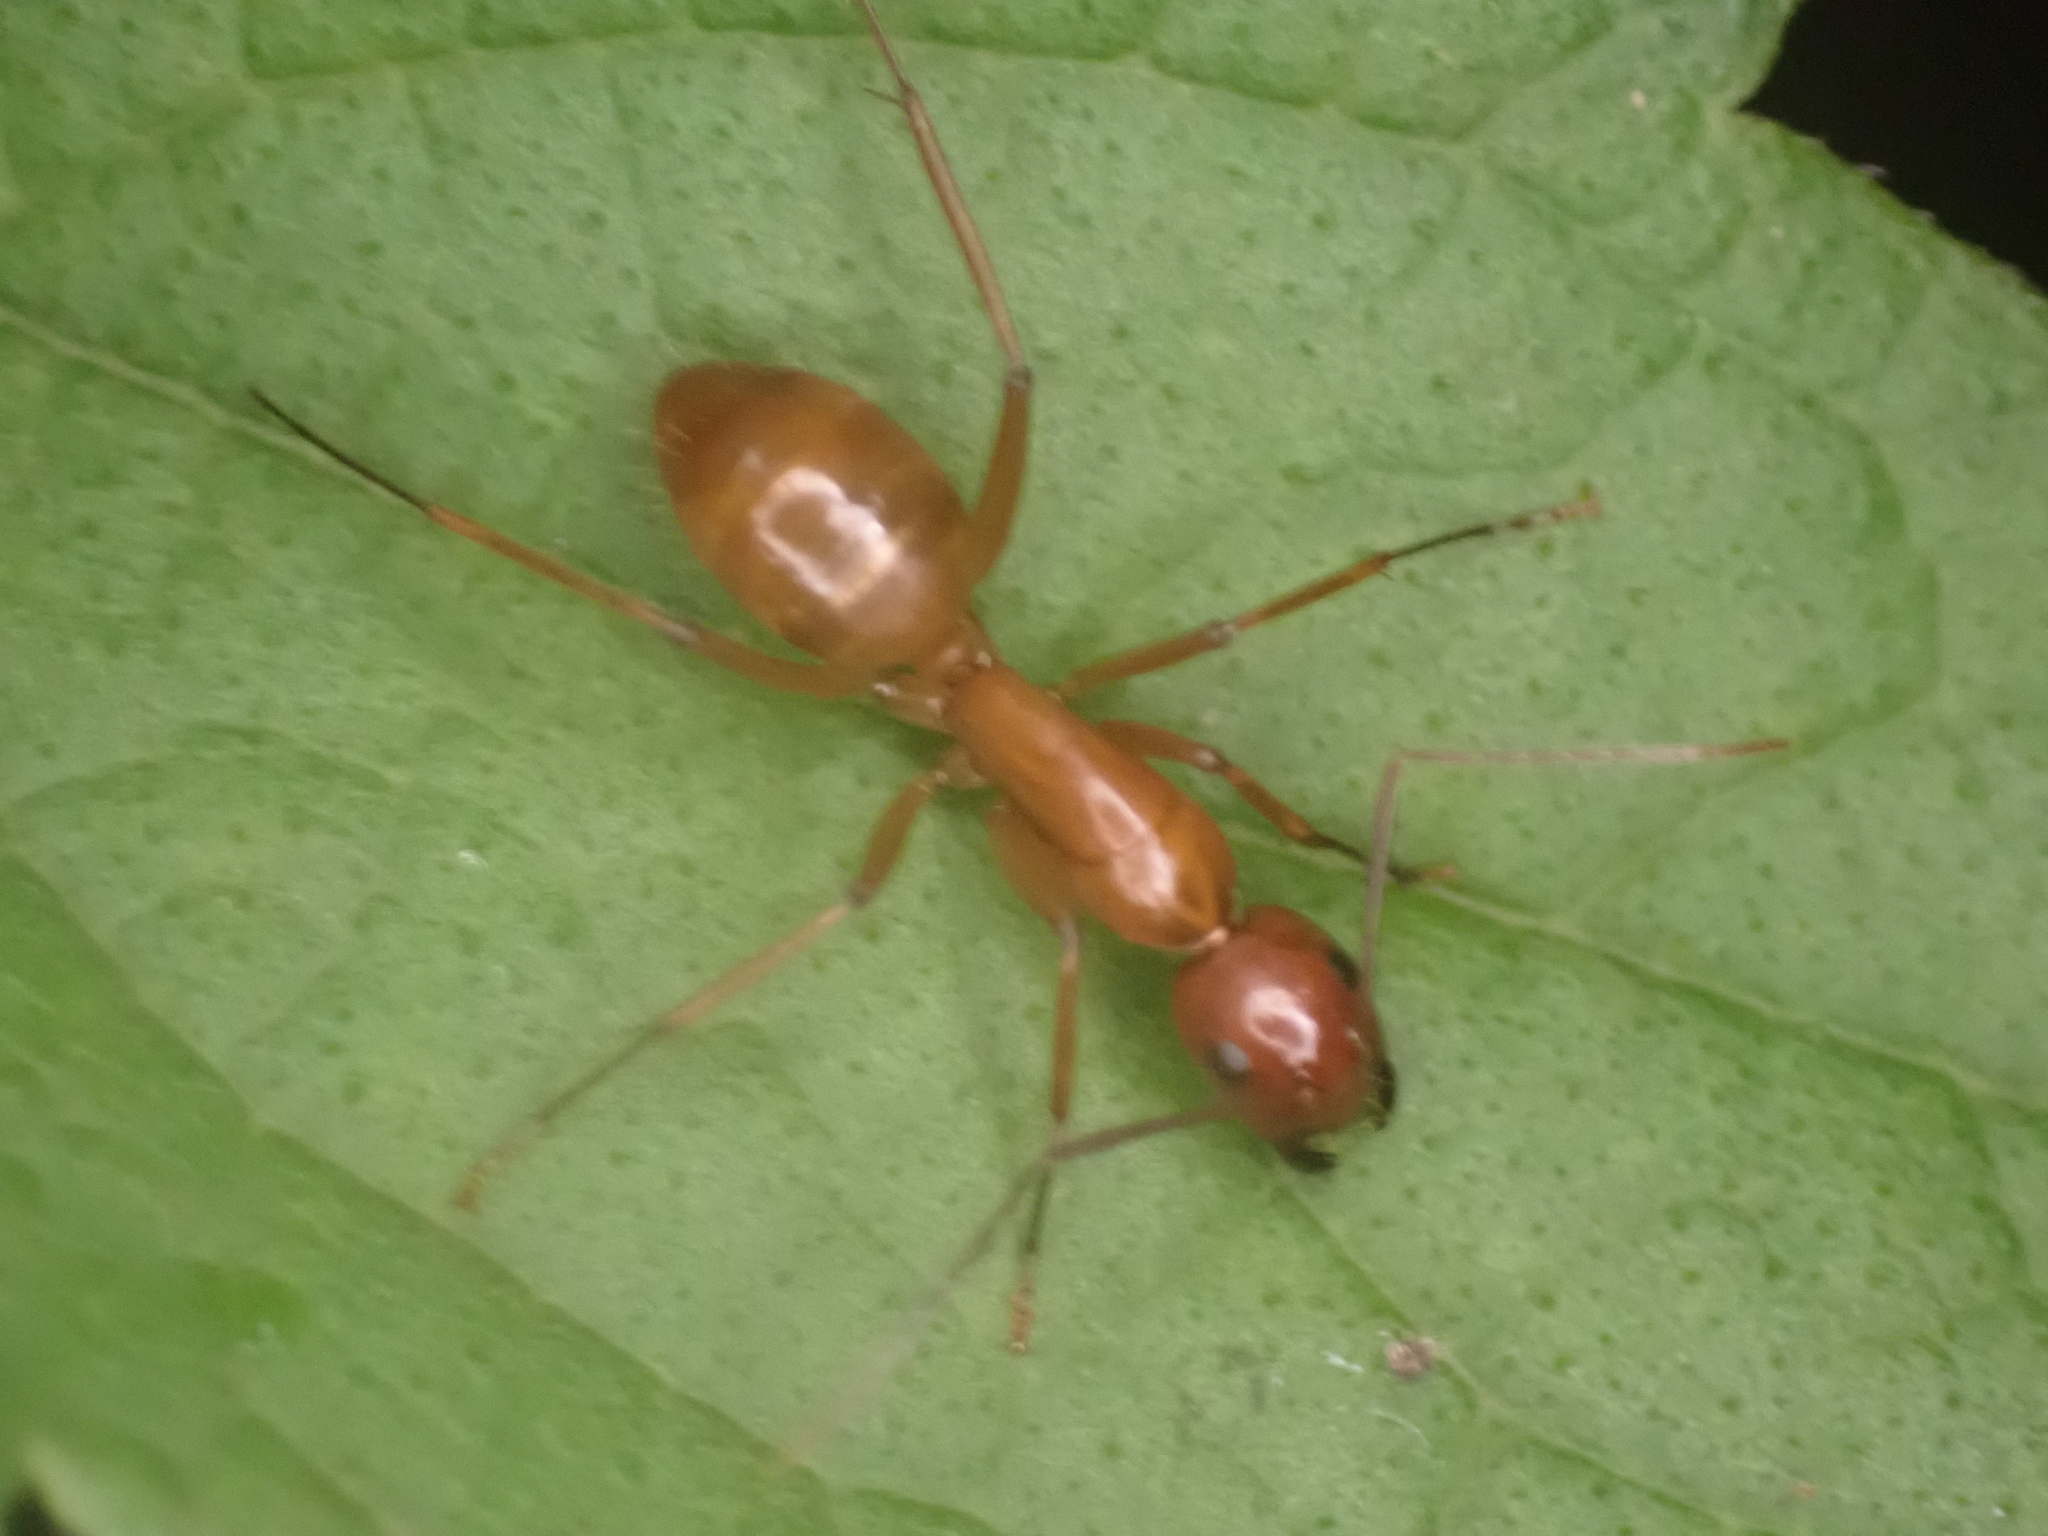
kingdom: Animalia
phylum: Arthropoda
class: Insecta
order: Hymenoptera
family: Formicidae
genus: Camponotus
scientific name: Camponotus castaneus
